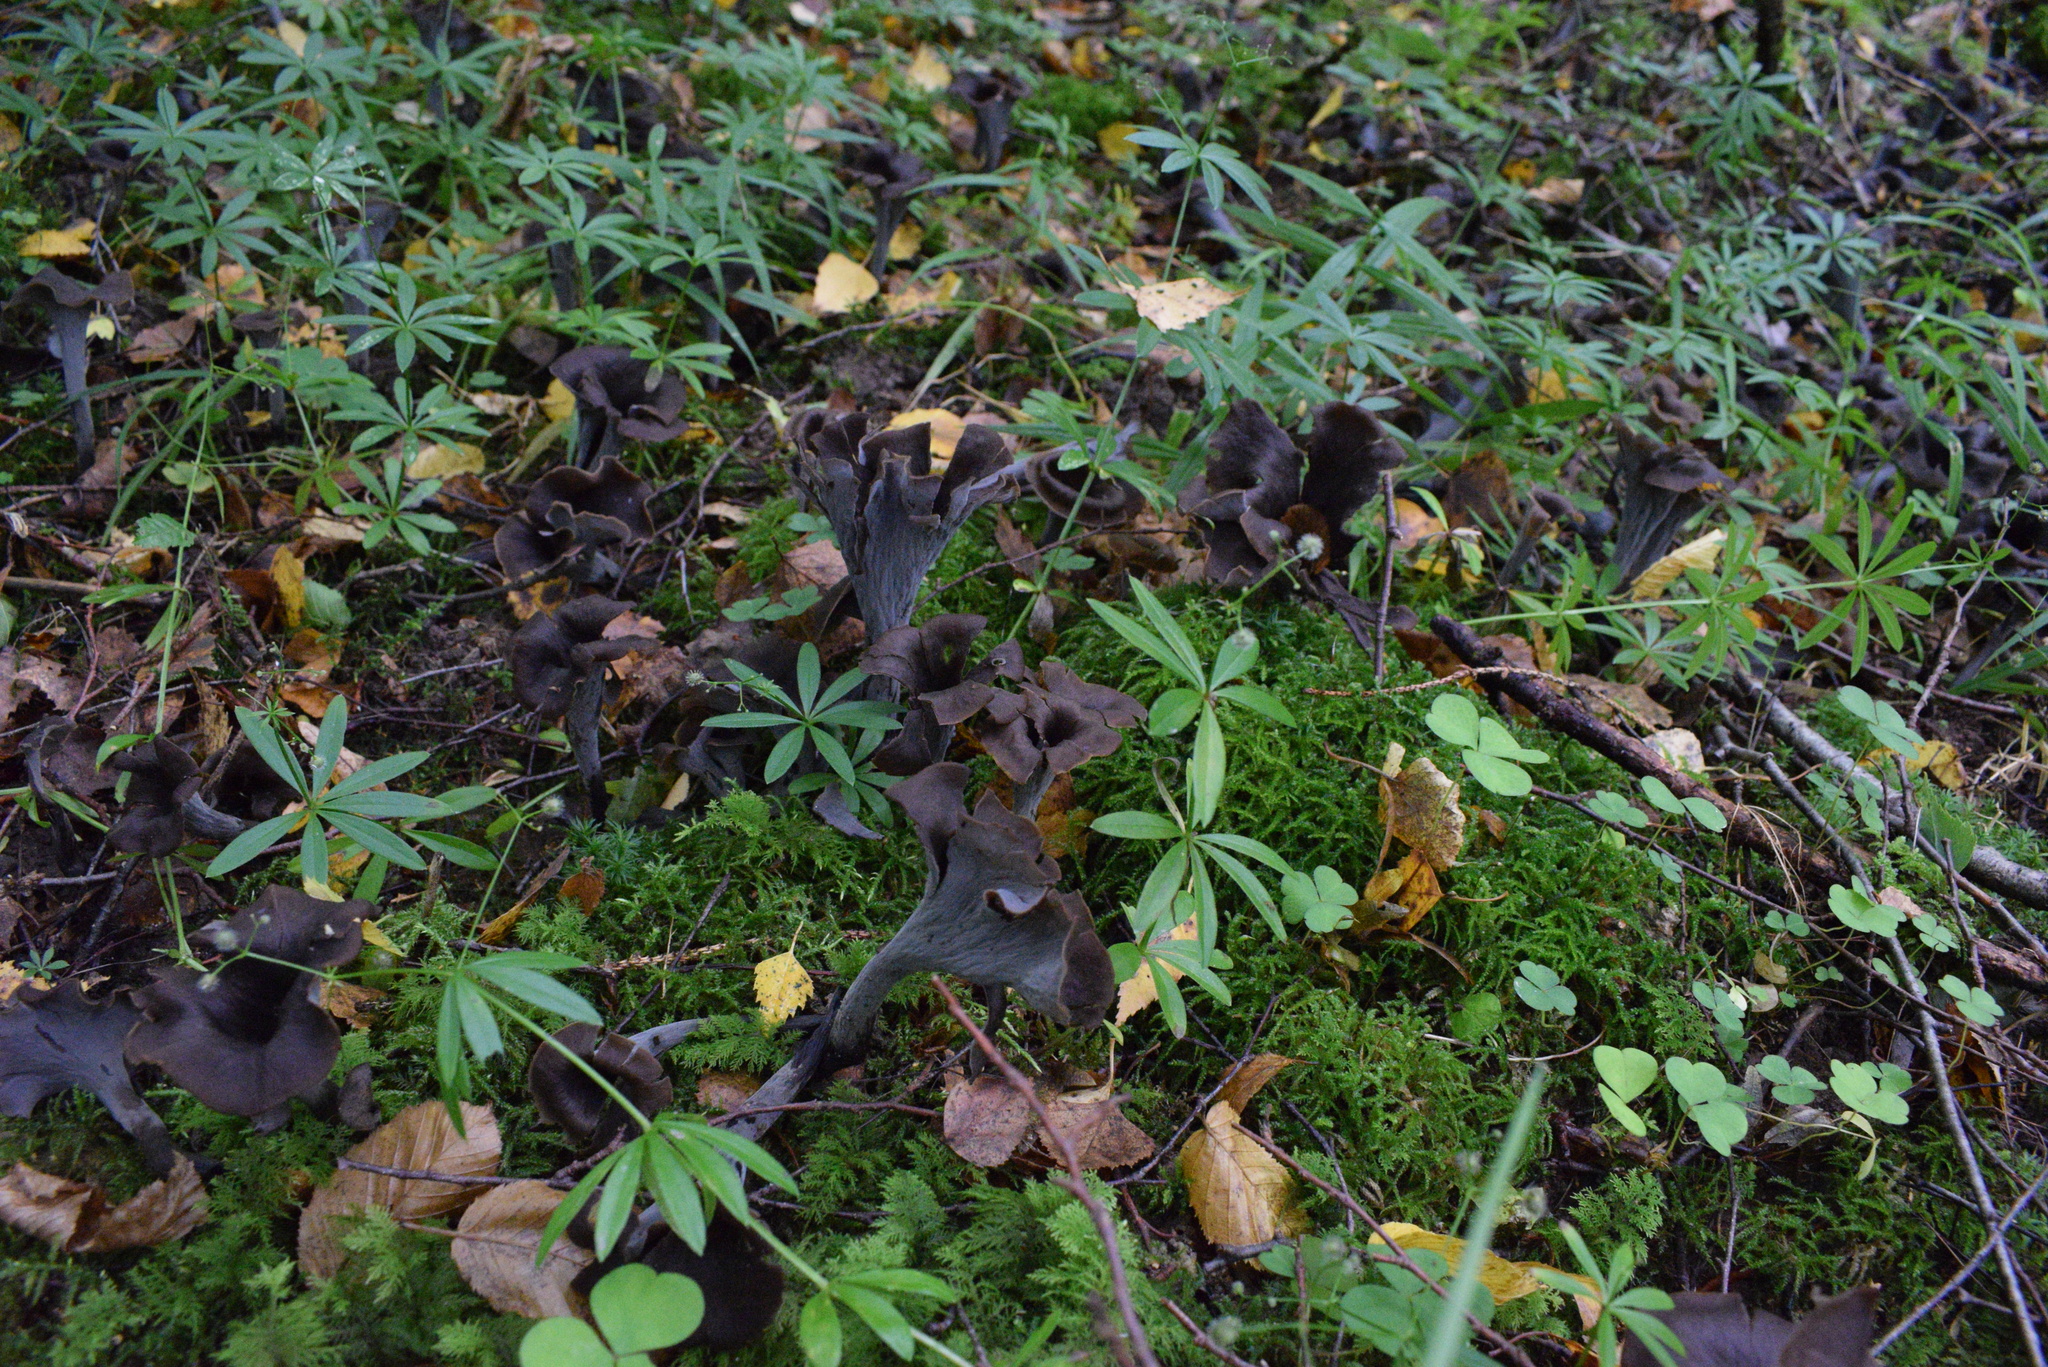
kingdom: Fungi
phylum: Basidiomycota
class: Agaricomycetes
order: Cantharellales
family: Hydnaceae
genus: Craterellus
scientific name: Craterellus cornucopioides
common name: Horn of plenty
